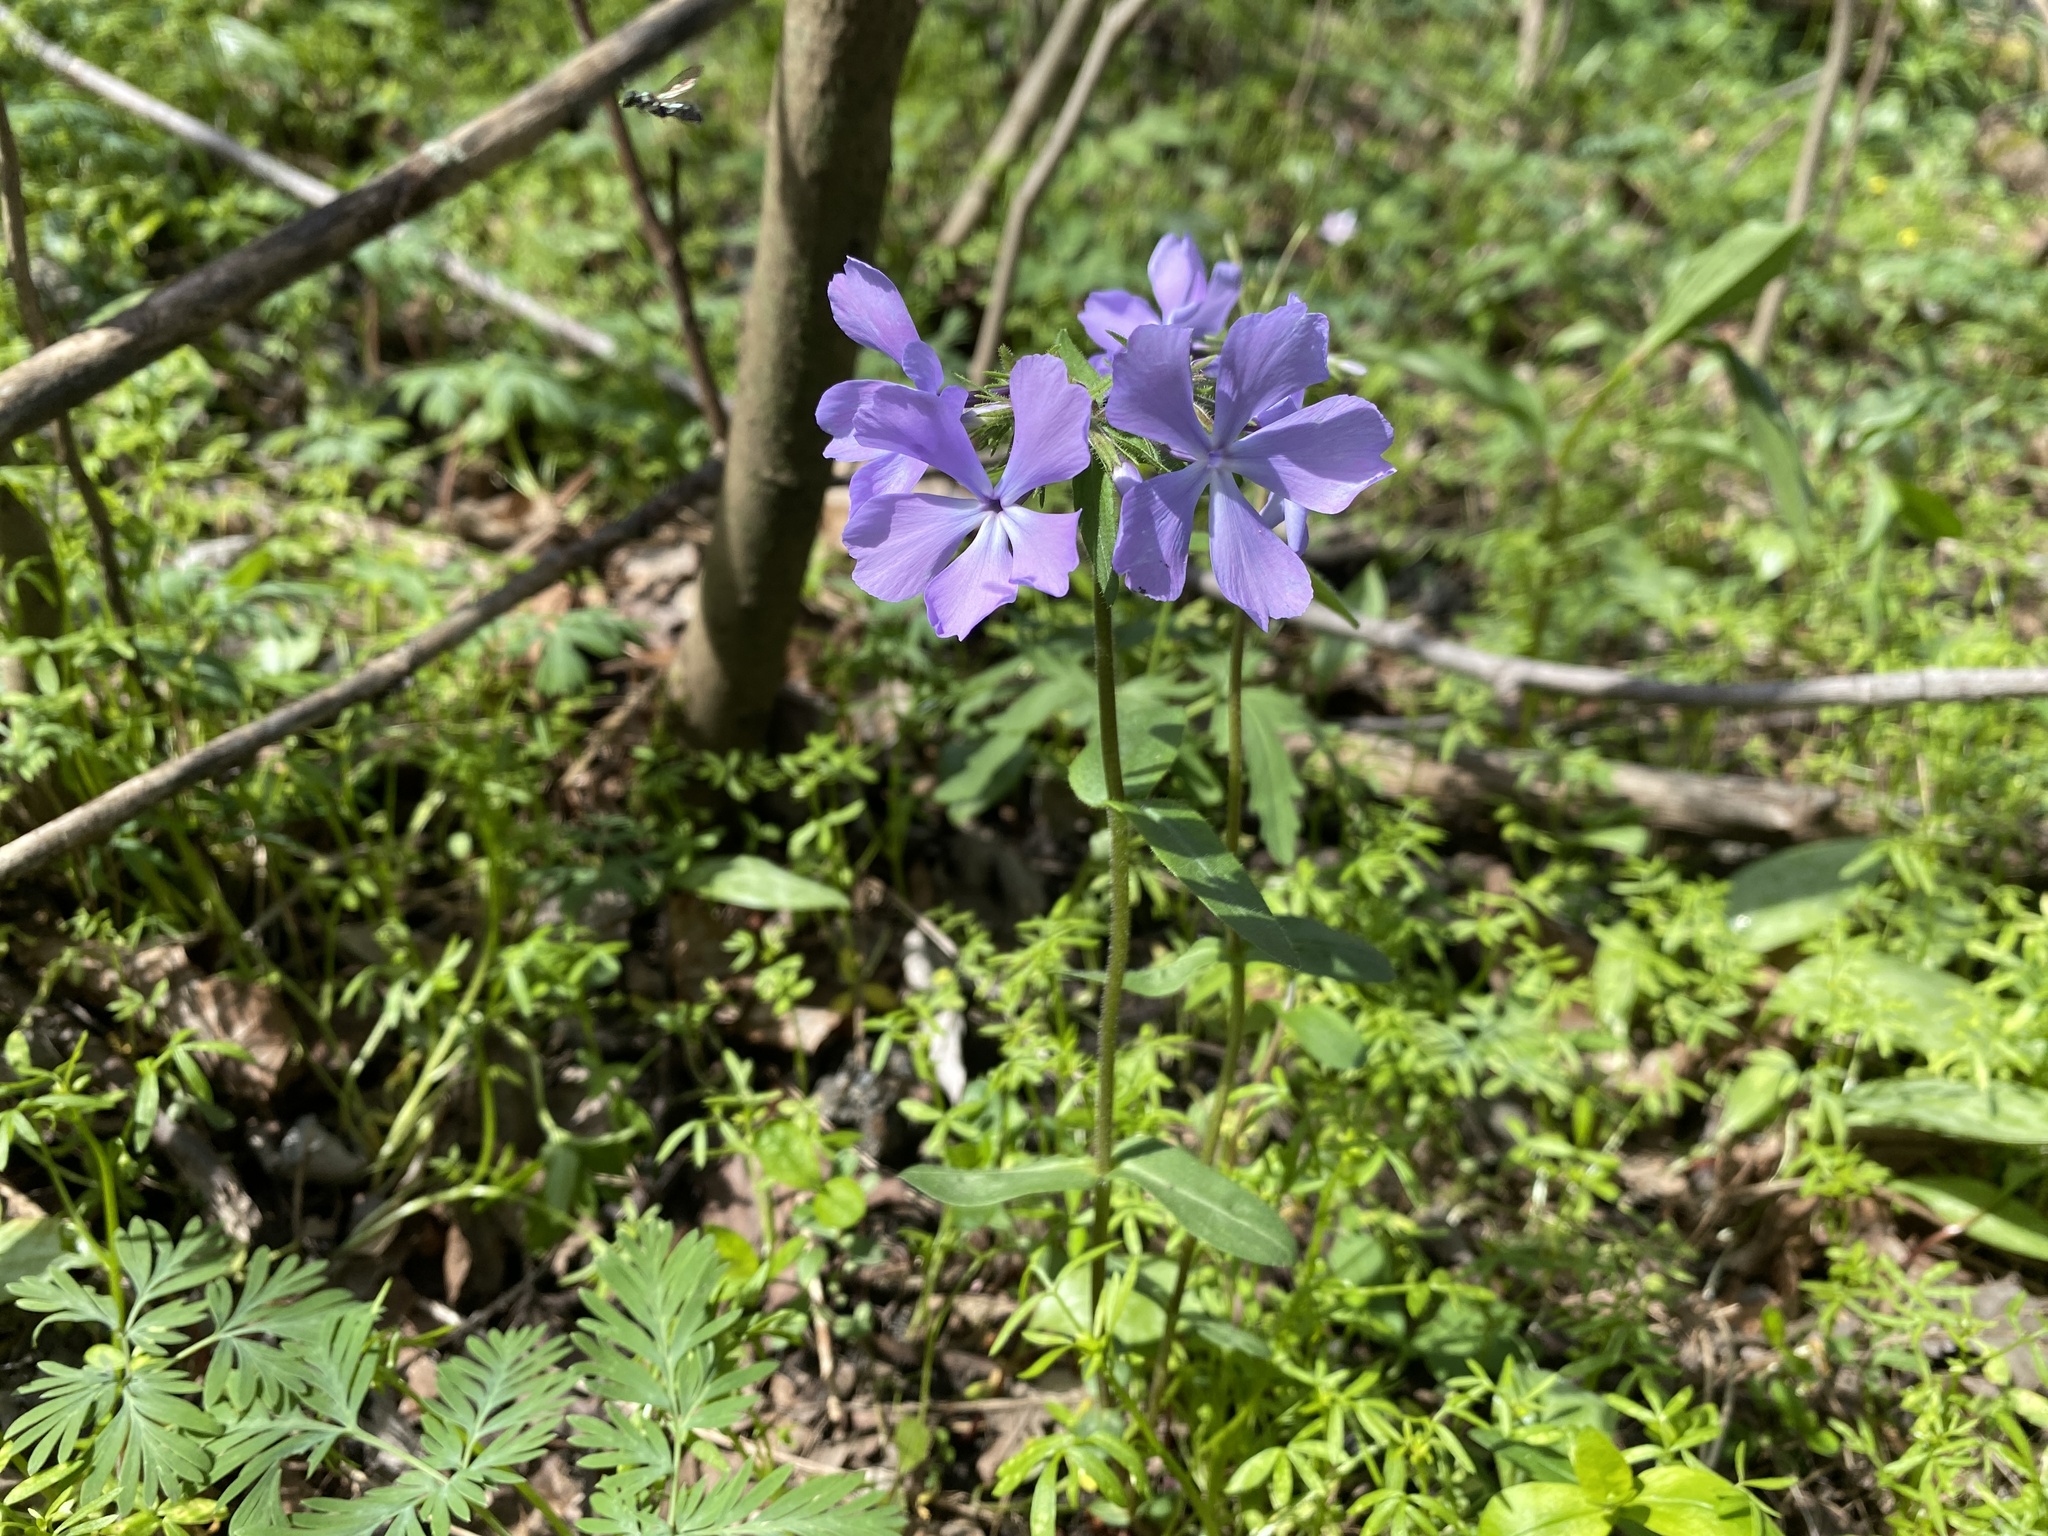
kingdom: Plantae
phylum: Tracheophyta
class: Magnoliopsida
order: Ericales
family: Polemoniaceae
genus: Phlox
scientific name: Phlox divaricata
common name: Blue phlox
